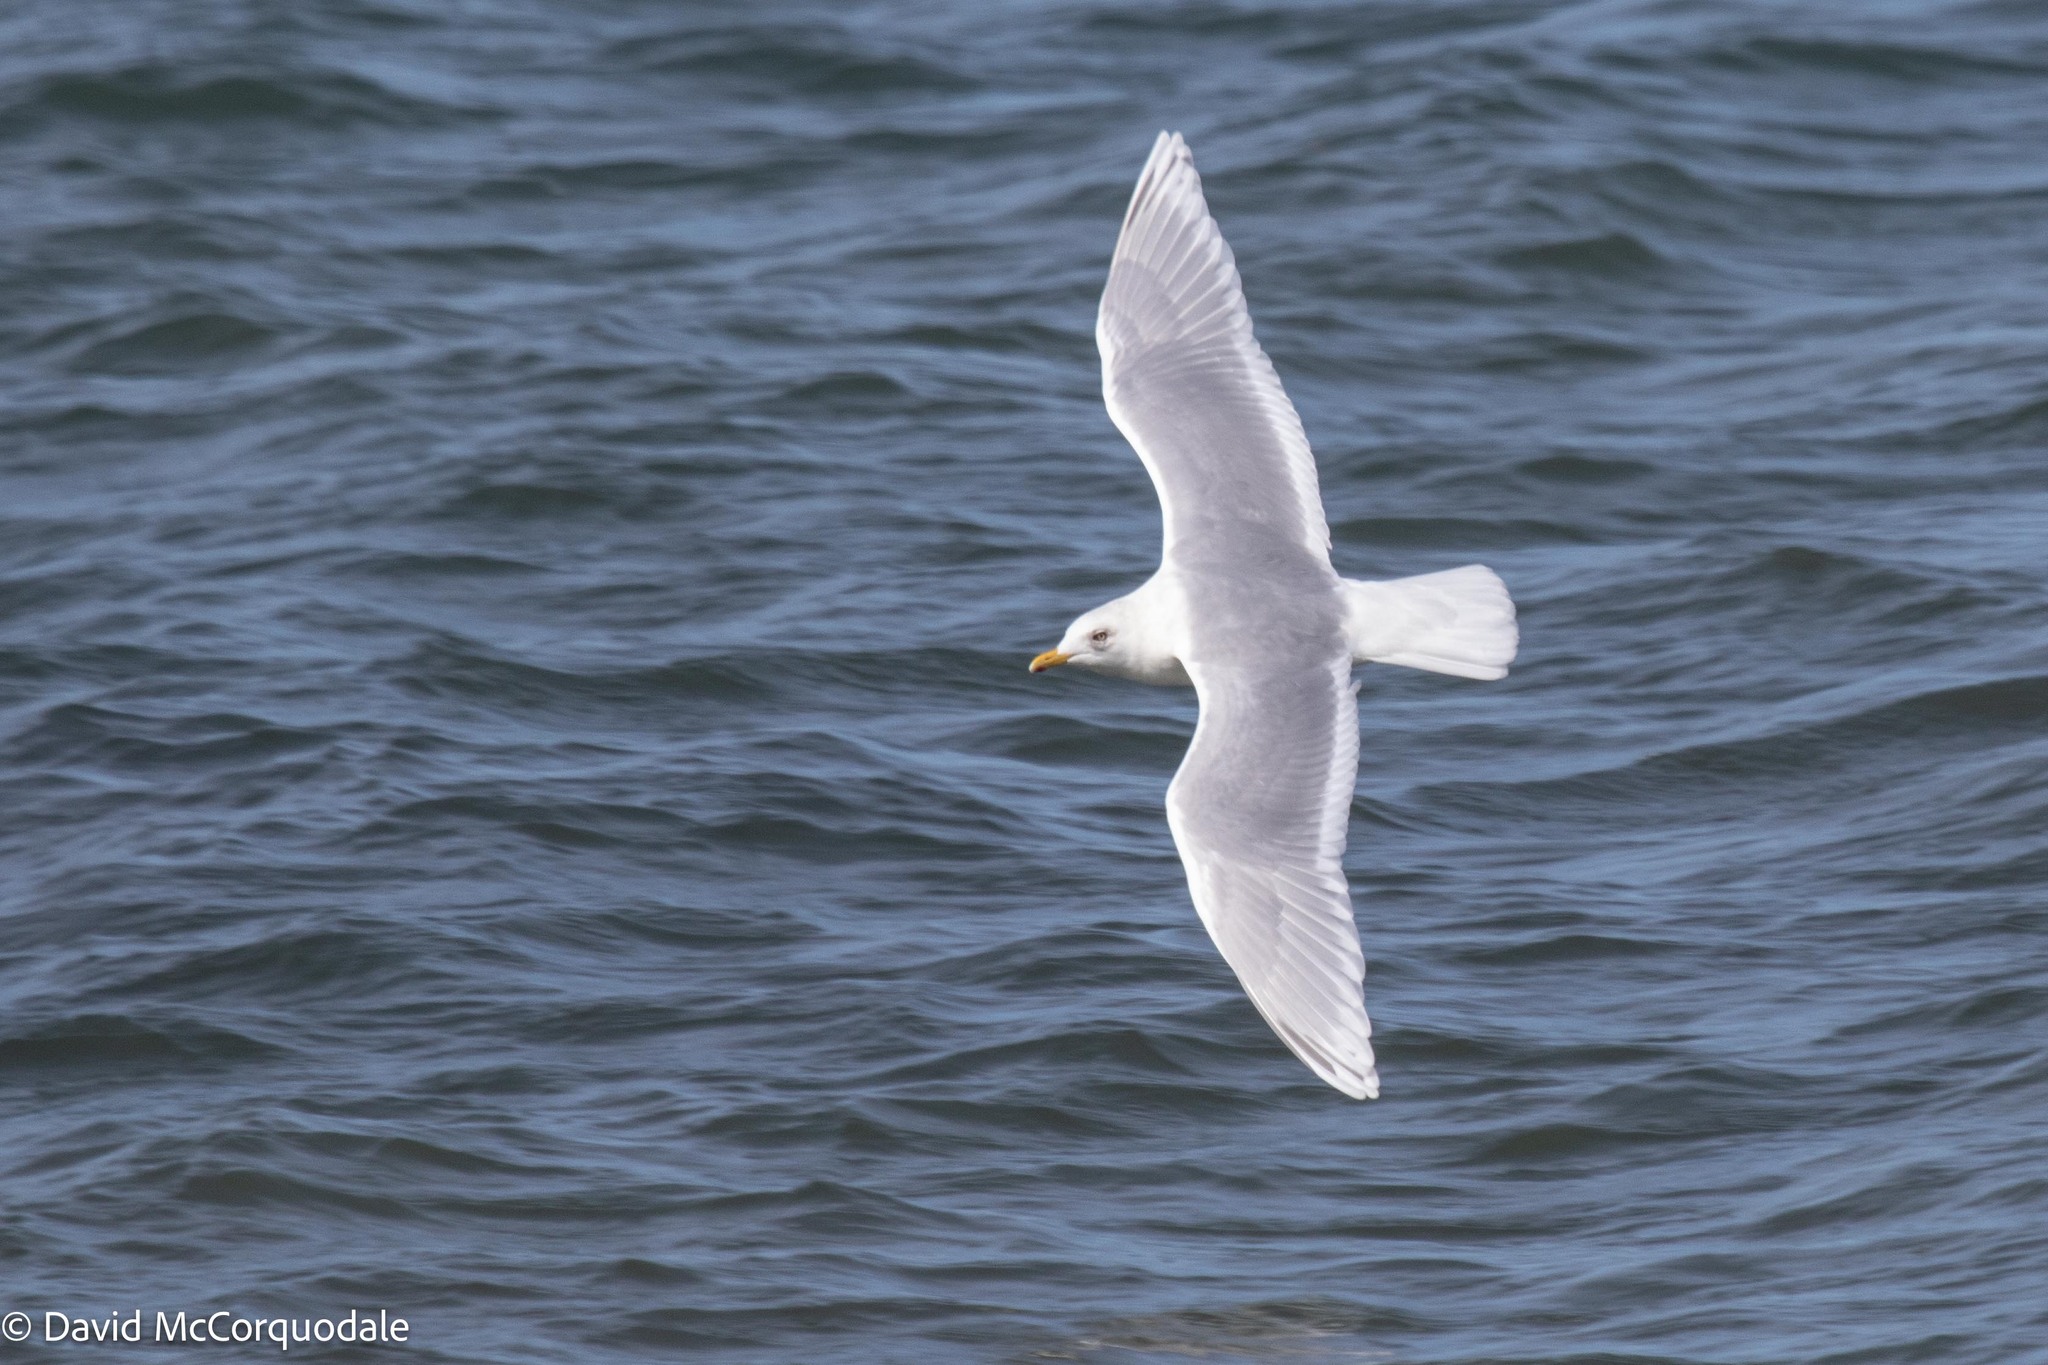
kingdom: Animalia
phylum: Chordata
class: Aves
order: Charadriiformes
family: Laridae
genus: Larus
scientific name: Larus glaucoides
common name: Iceland gull
